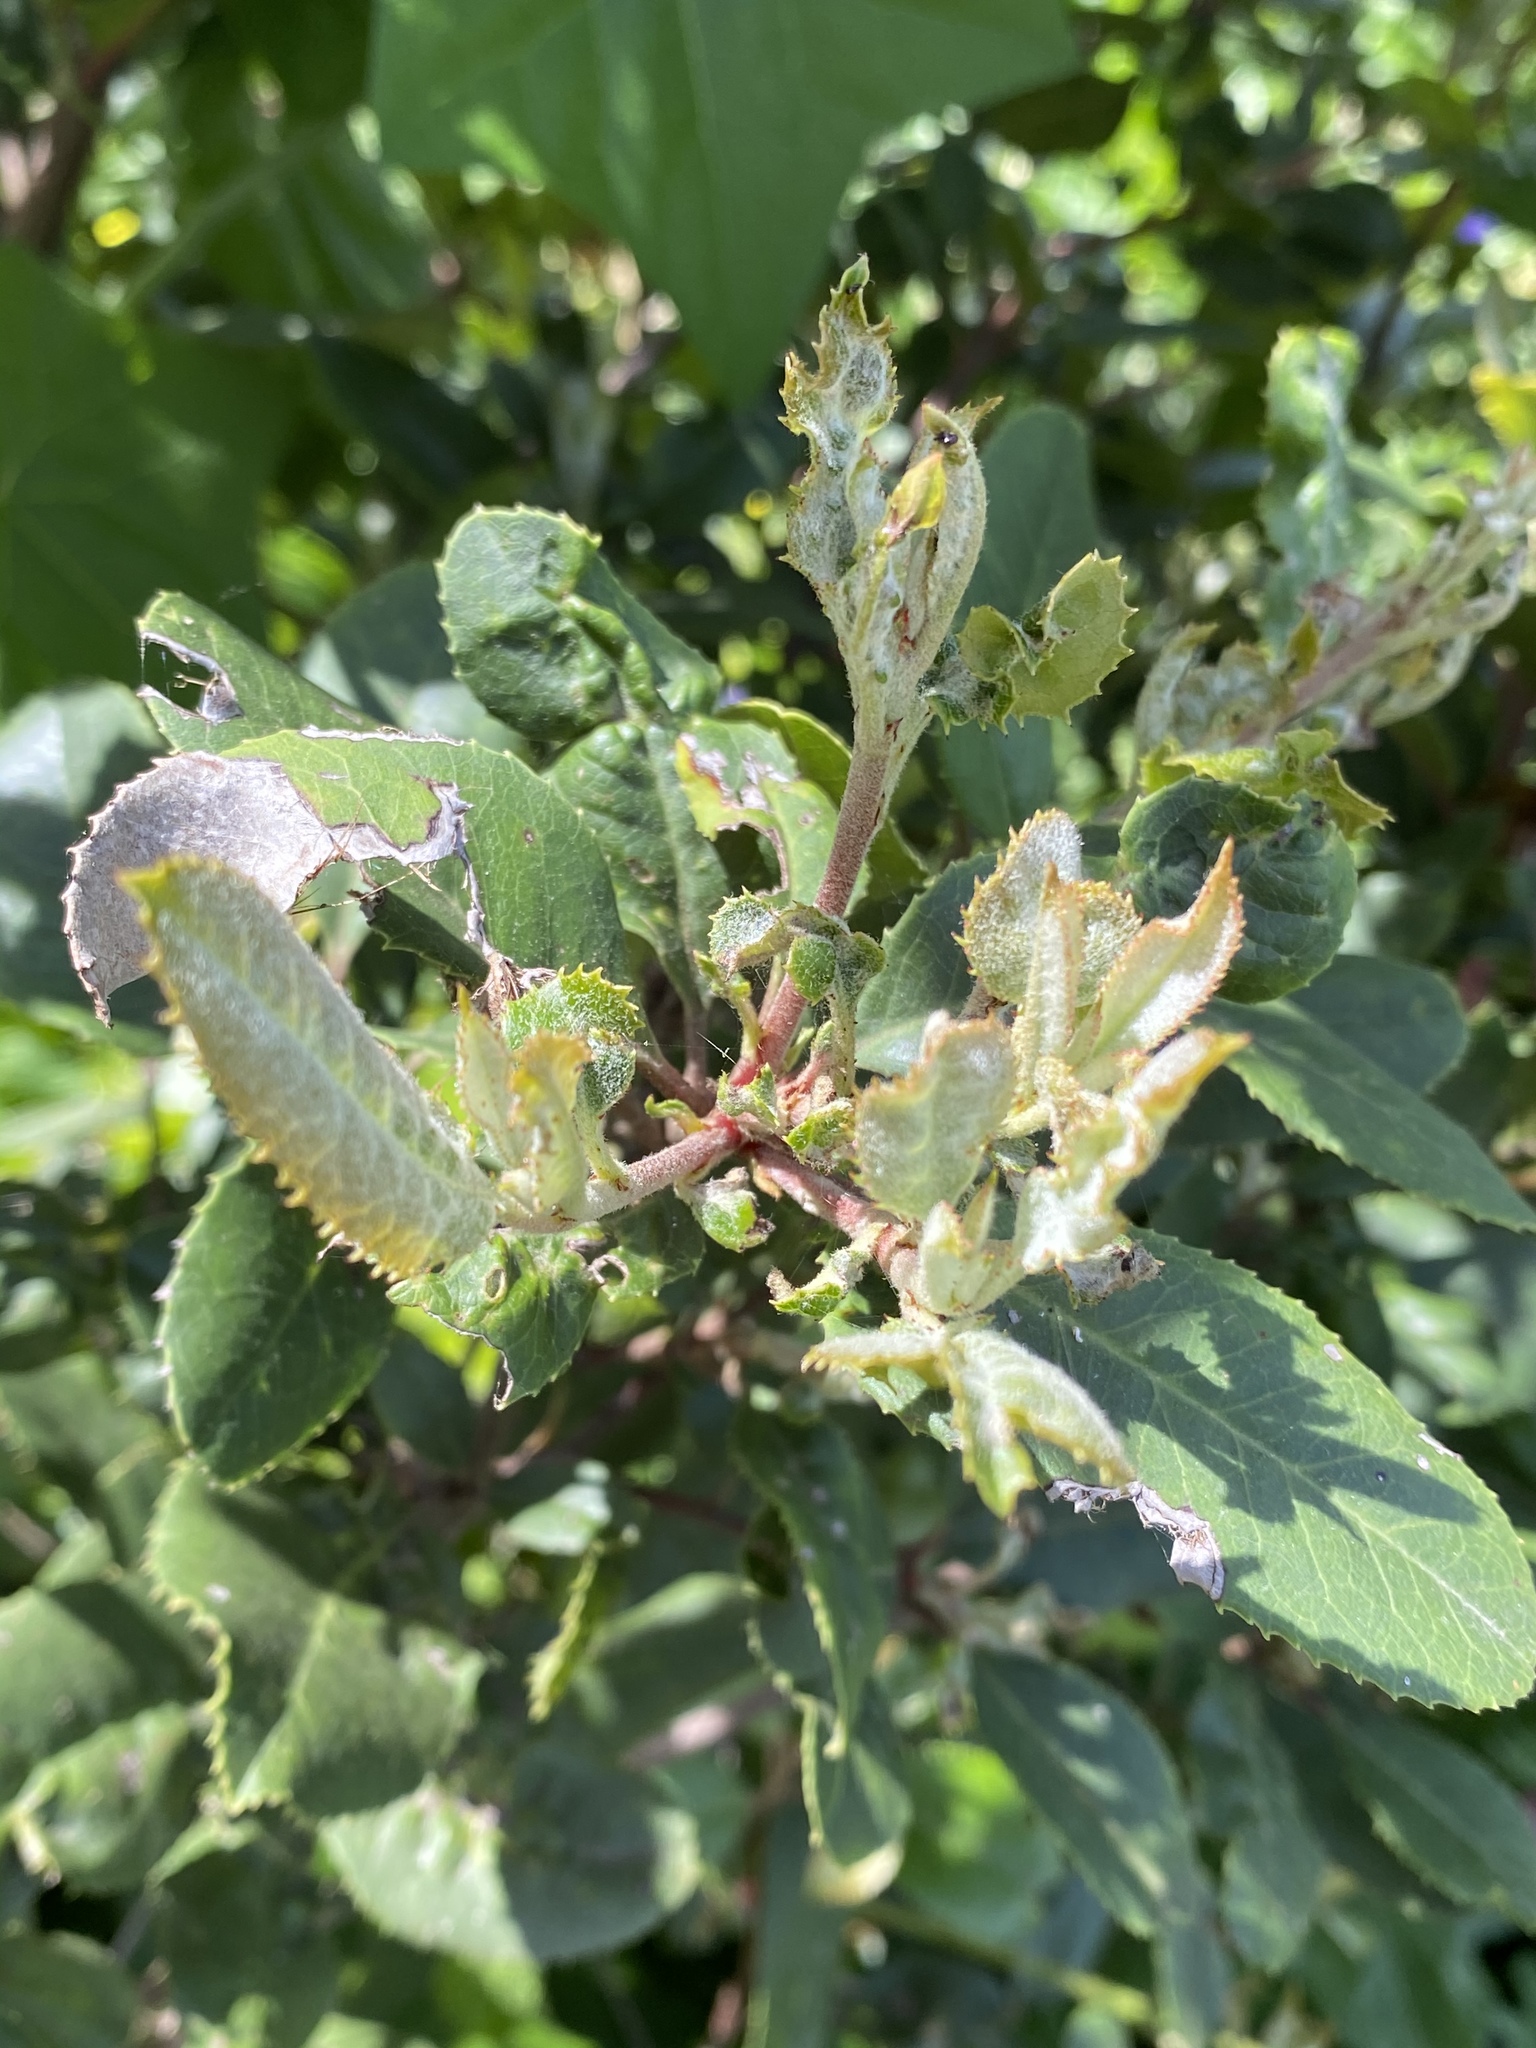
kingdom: Plantae
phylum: Tracheophyta
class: Magnoliopsida
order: Rosales
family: Rosaceae
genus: Heteromeles
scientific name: Heteromeles arbutifolia
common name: California-holly
